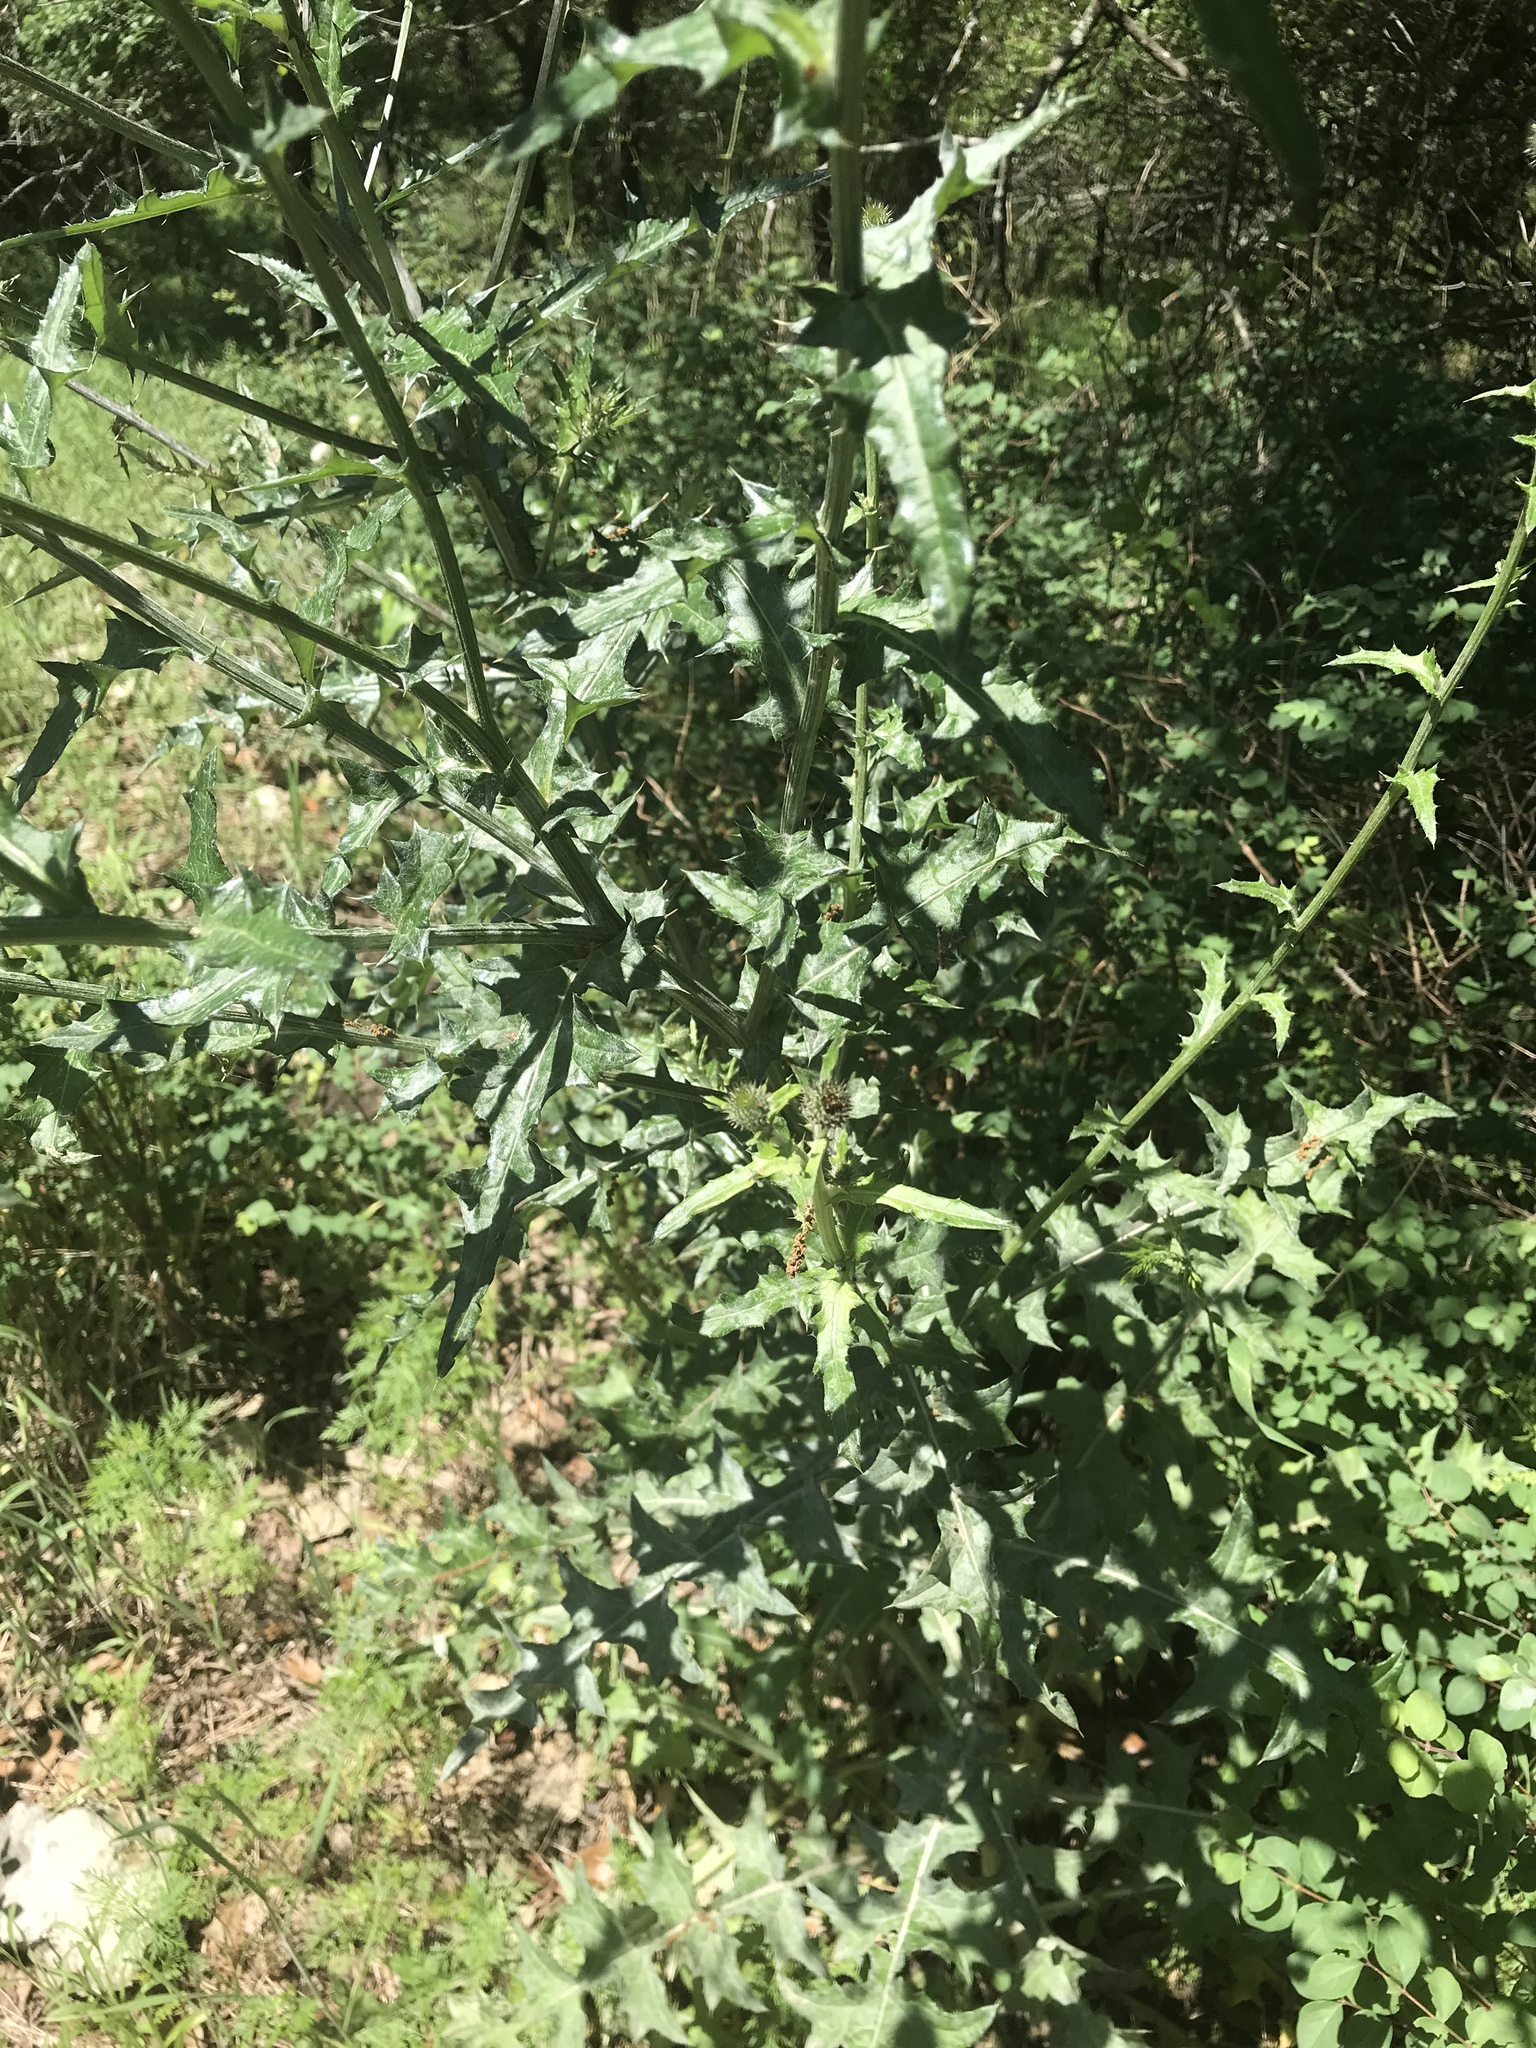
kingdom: Plantae
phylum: Tracheophyta
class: Magnoliopsida
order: Asterales
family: Asteraceae
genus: Cirsium
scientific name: Cirsium texanum
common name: Texas purple thistle
